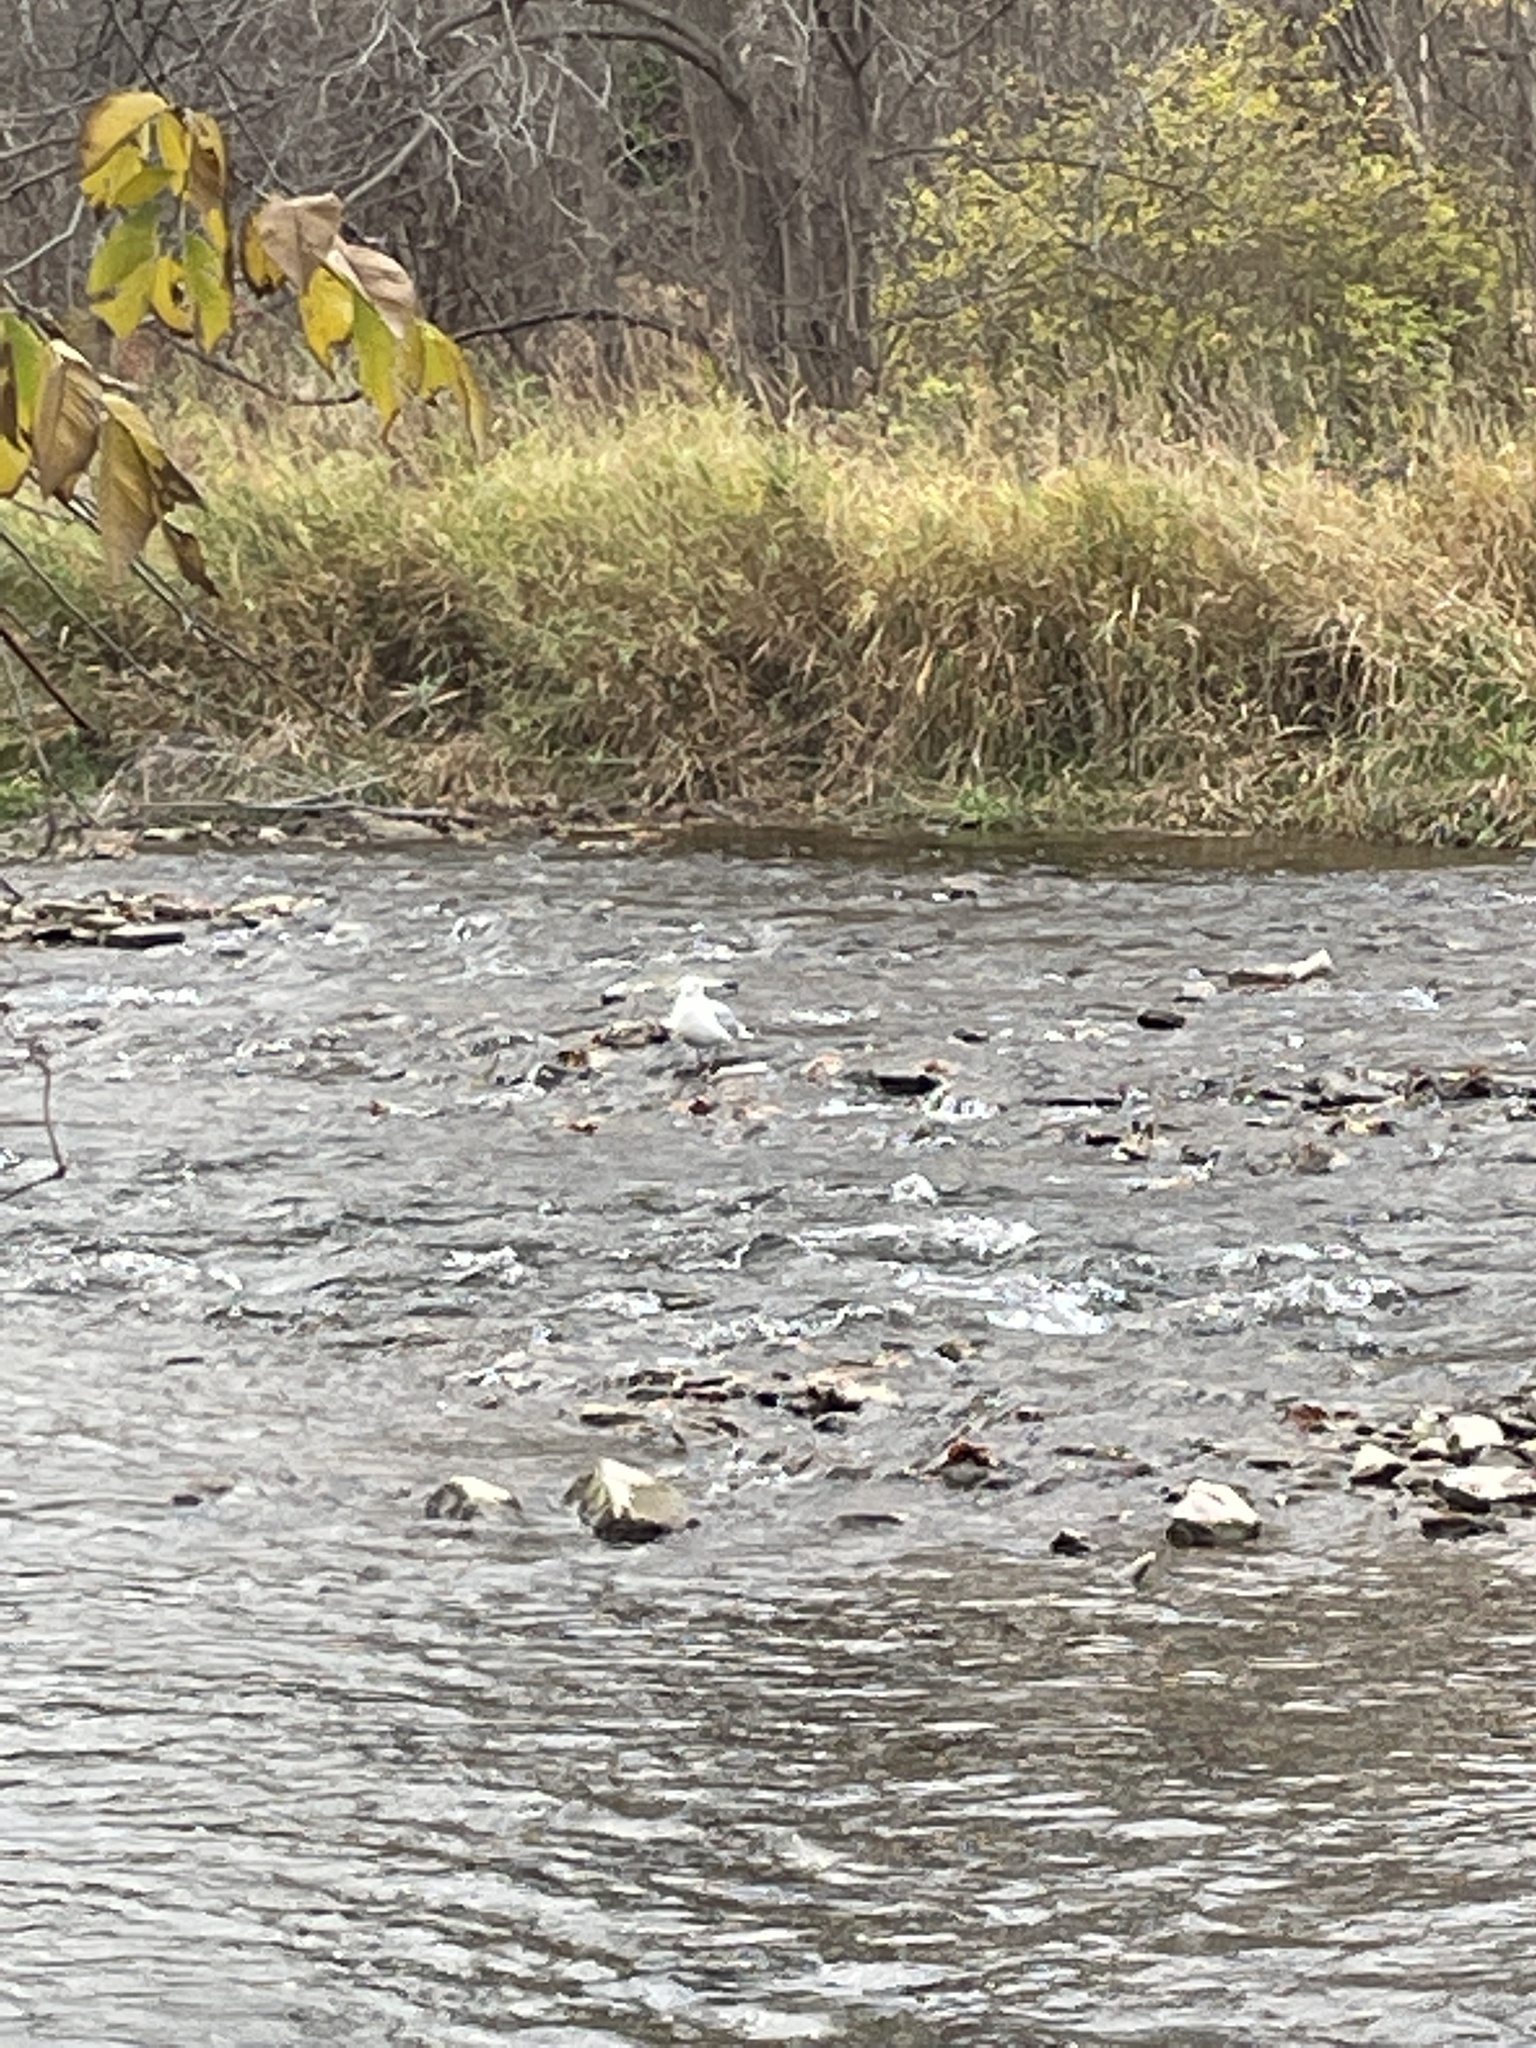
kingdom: Animalia
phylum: Chordata
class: Aves
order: Charadriiformes
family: Laridae
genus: Larus
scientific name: Larus
